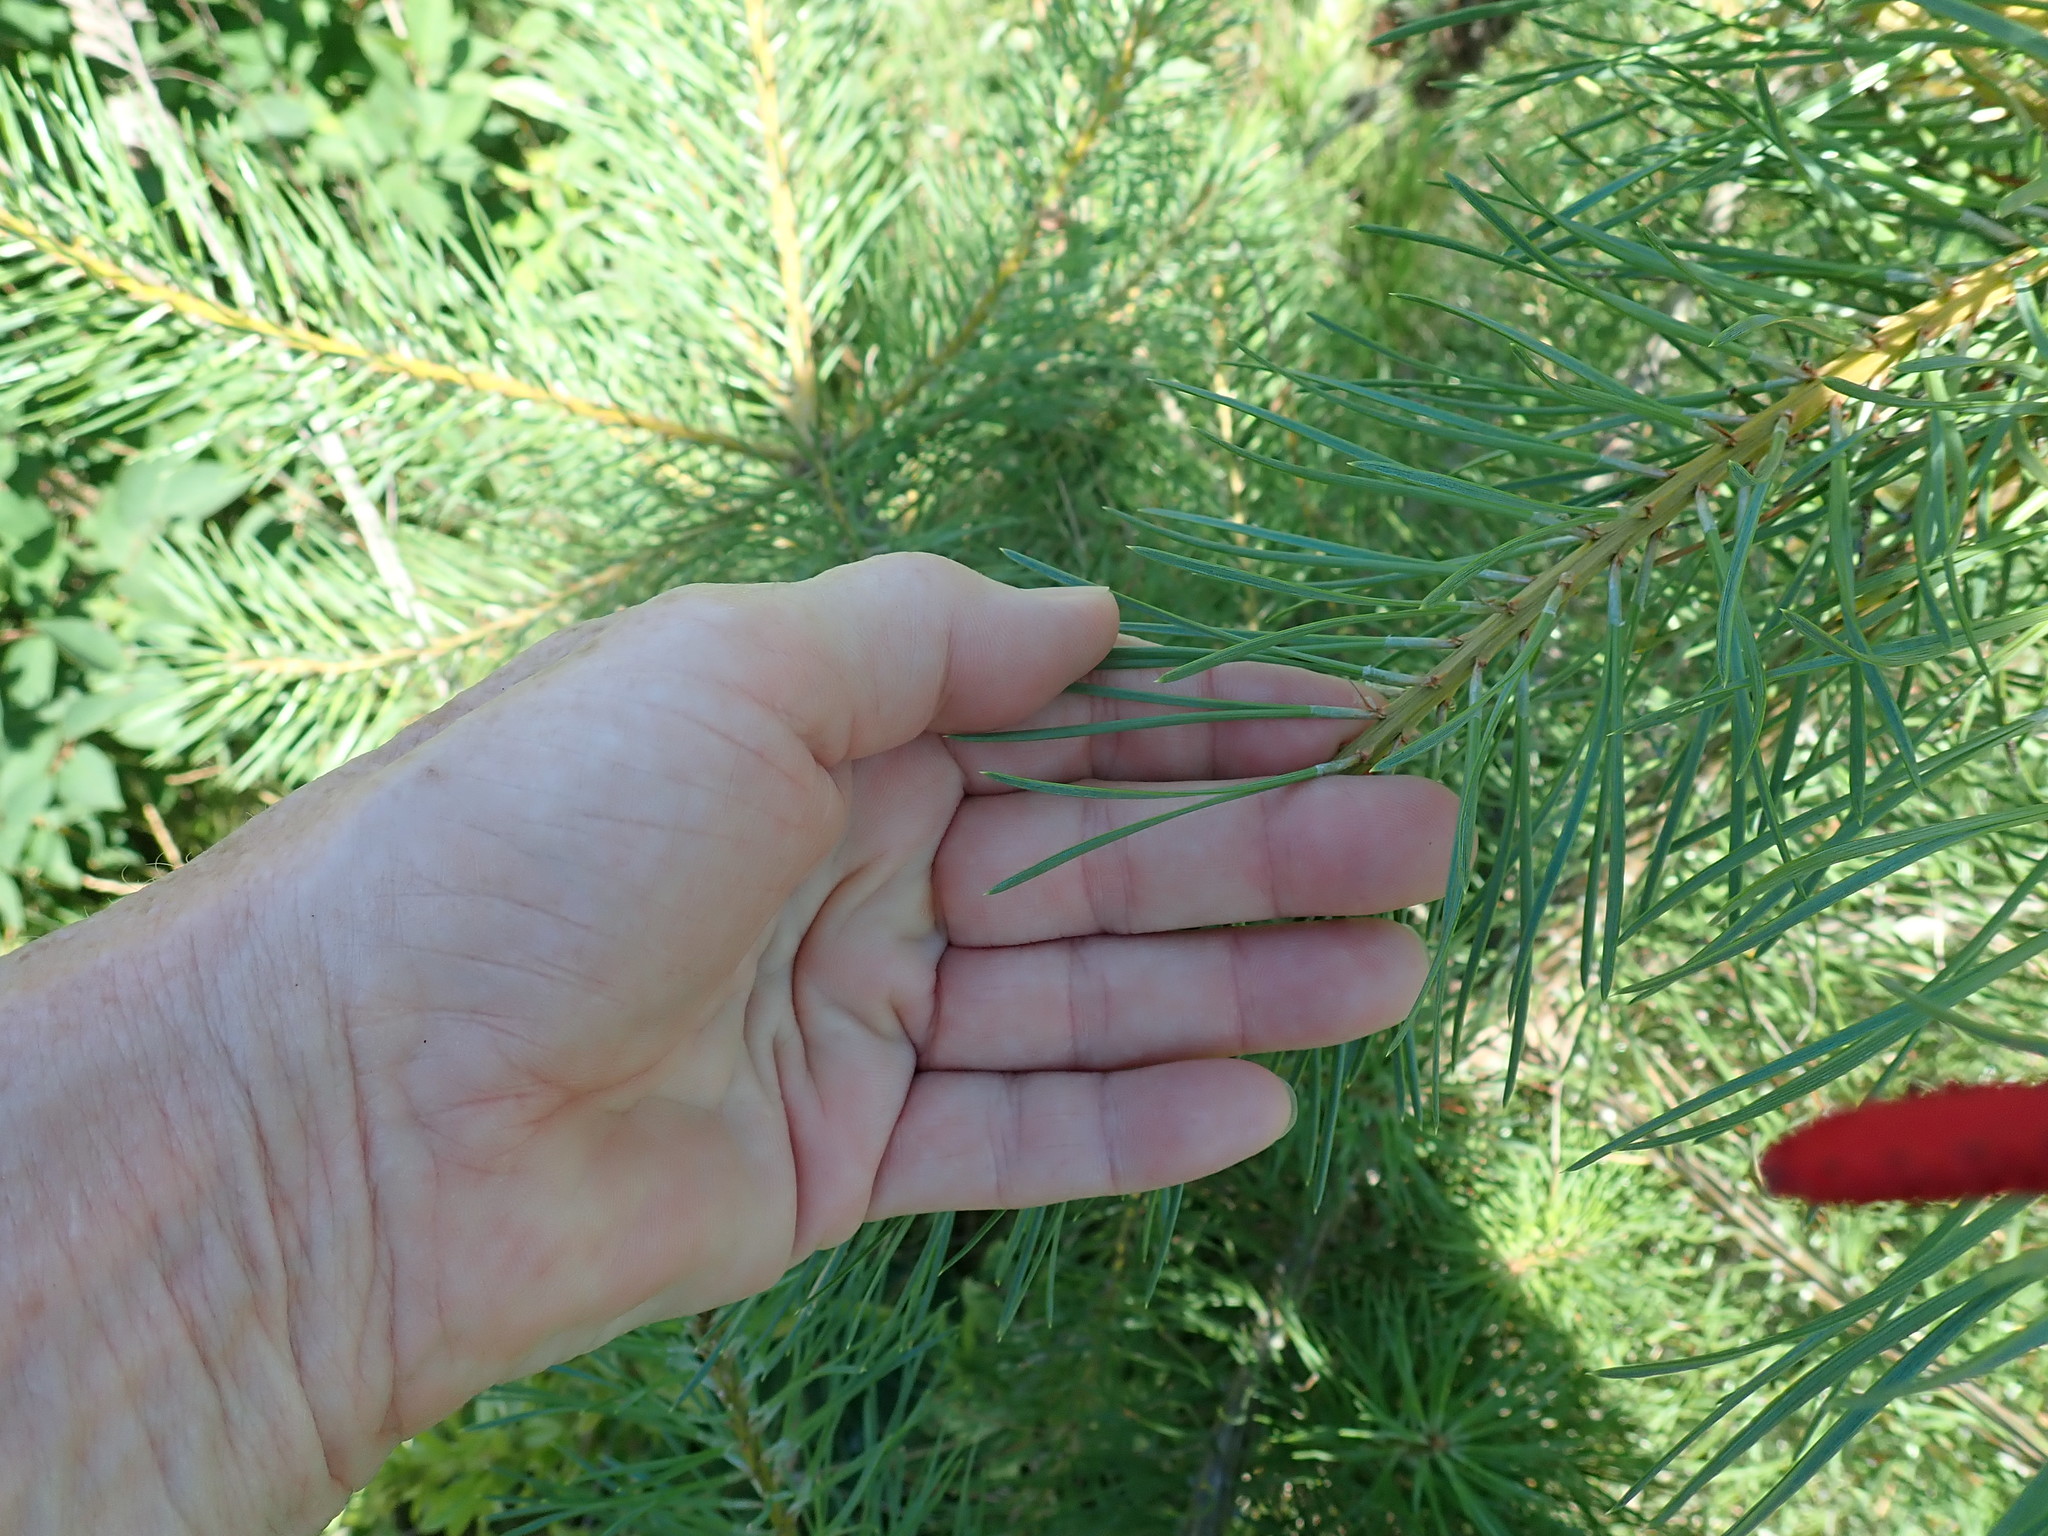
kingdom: Plantae
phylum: Tracheophyta
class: Pinopsida
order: Pinales
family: Pinaceae
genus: Pinus
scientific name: Pinus resinosa
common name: Norway pine
